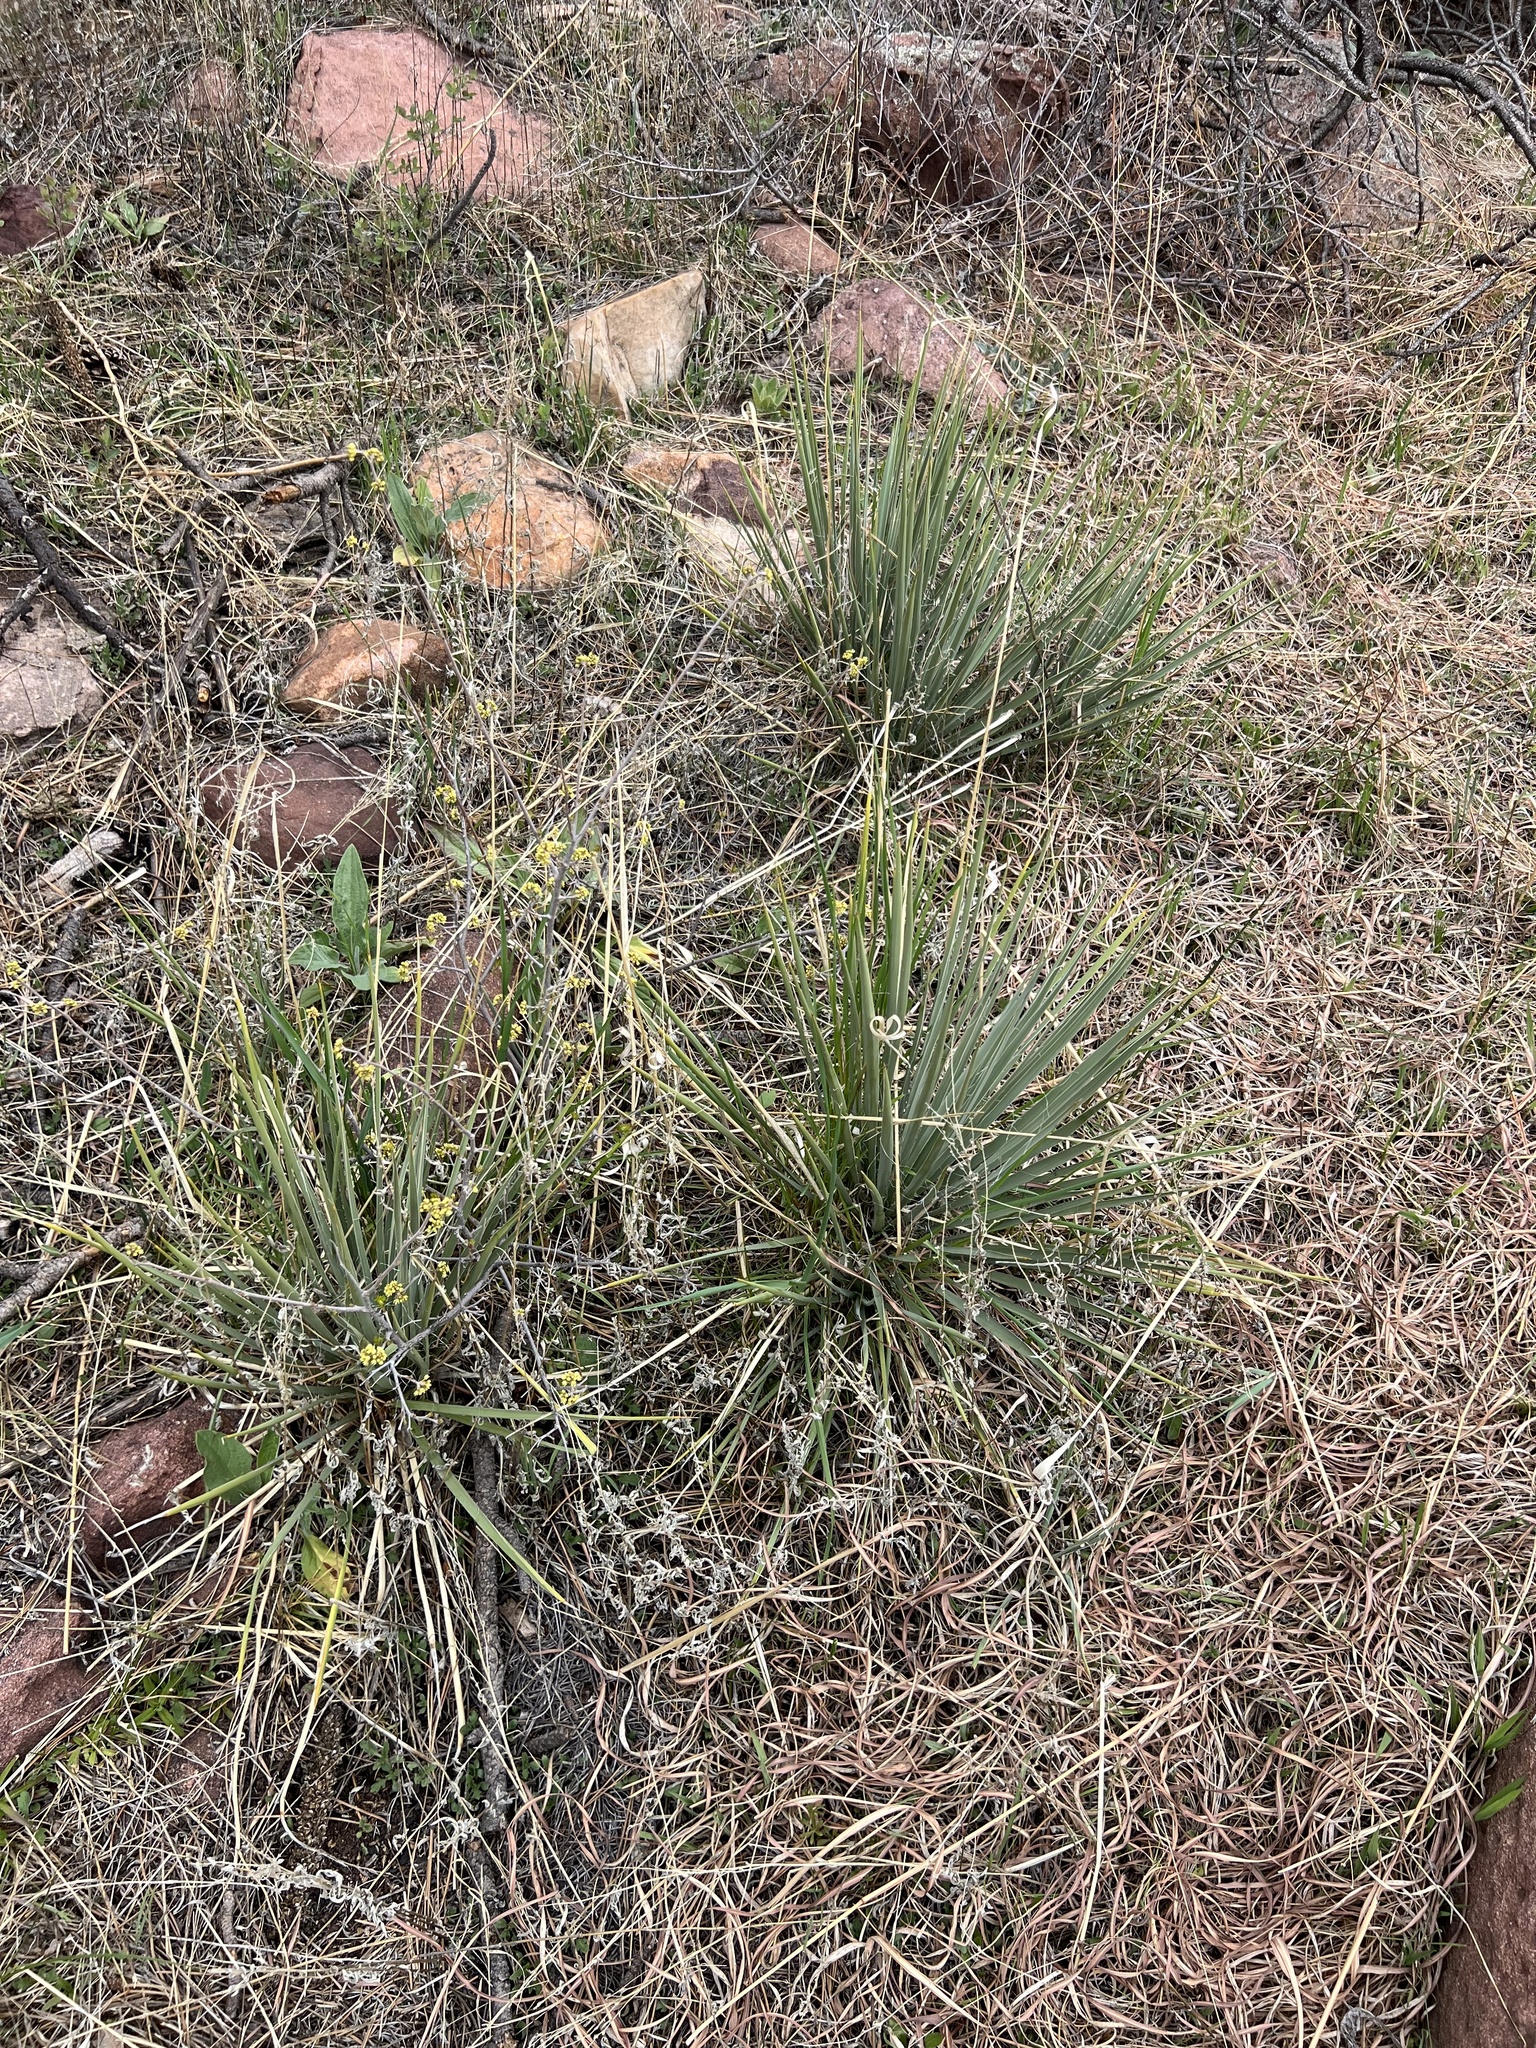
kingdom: Plantae
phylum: Tracheophyta
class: Liliopsida
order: Asparagales
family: Asparagaceae
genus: Yucca
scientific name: Yucca glauca
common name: Great plains yucca
